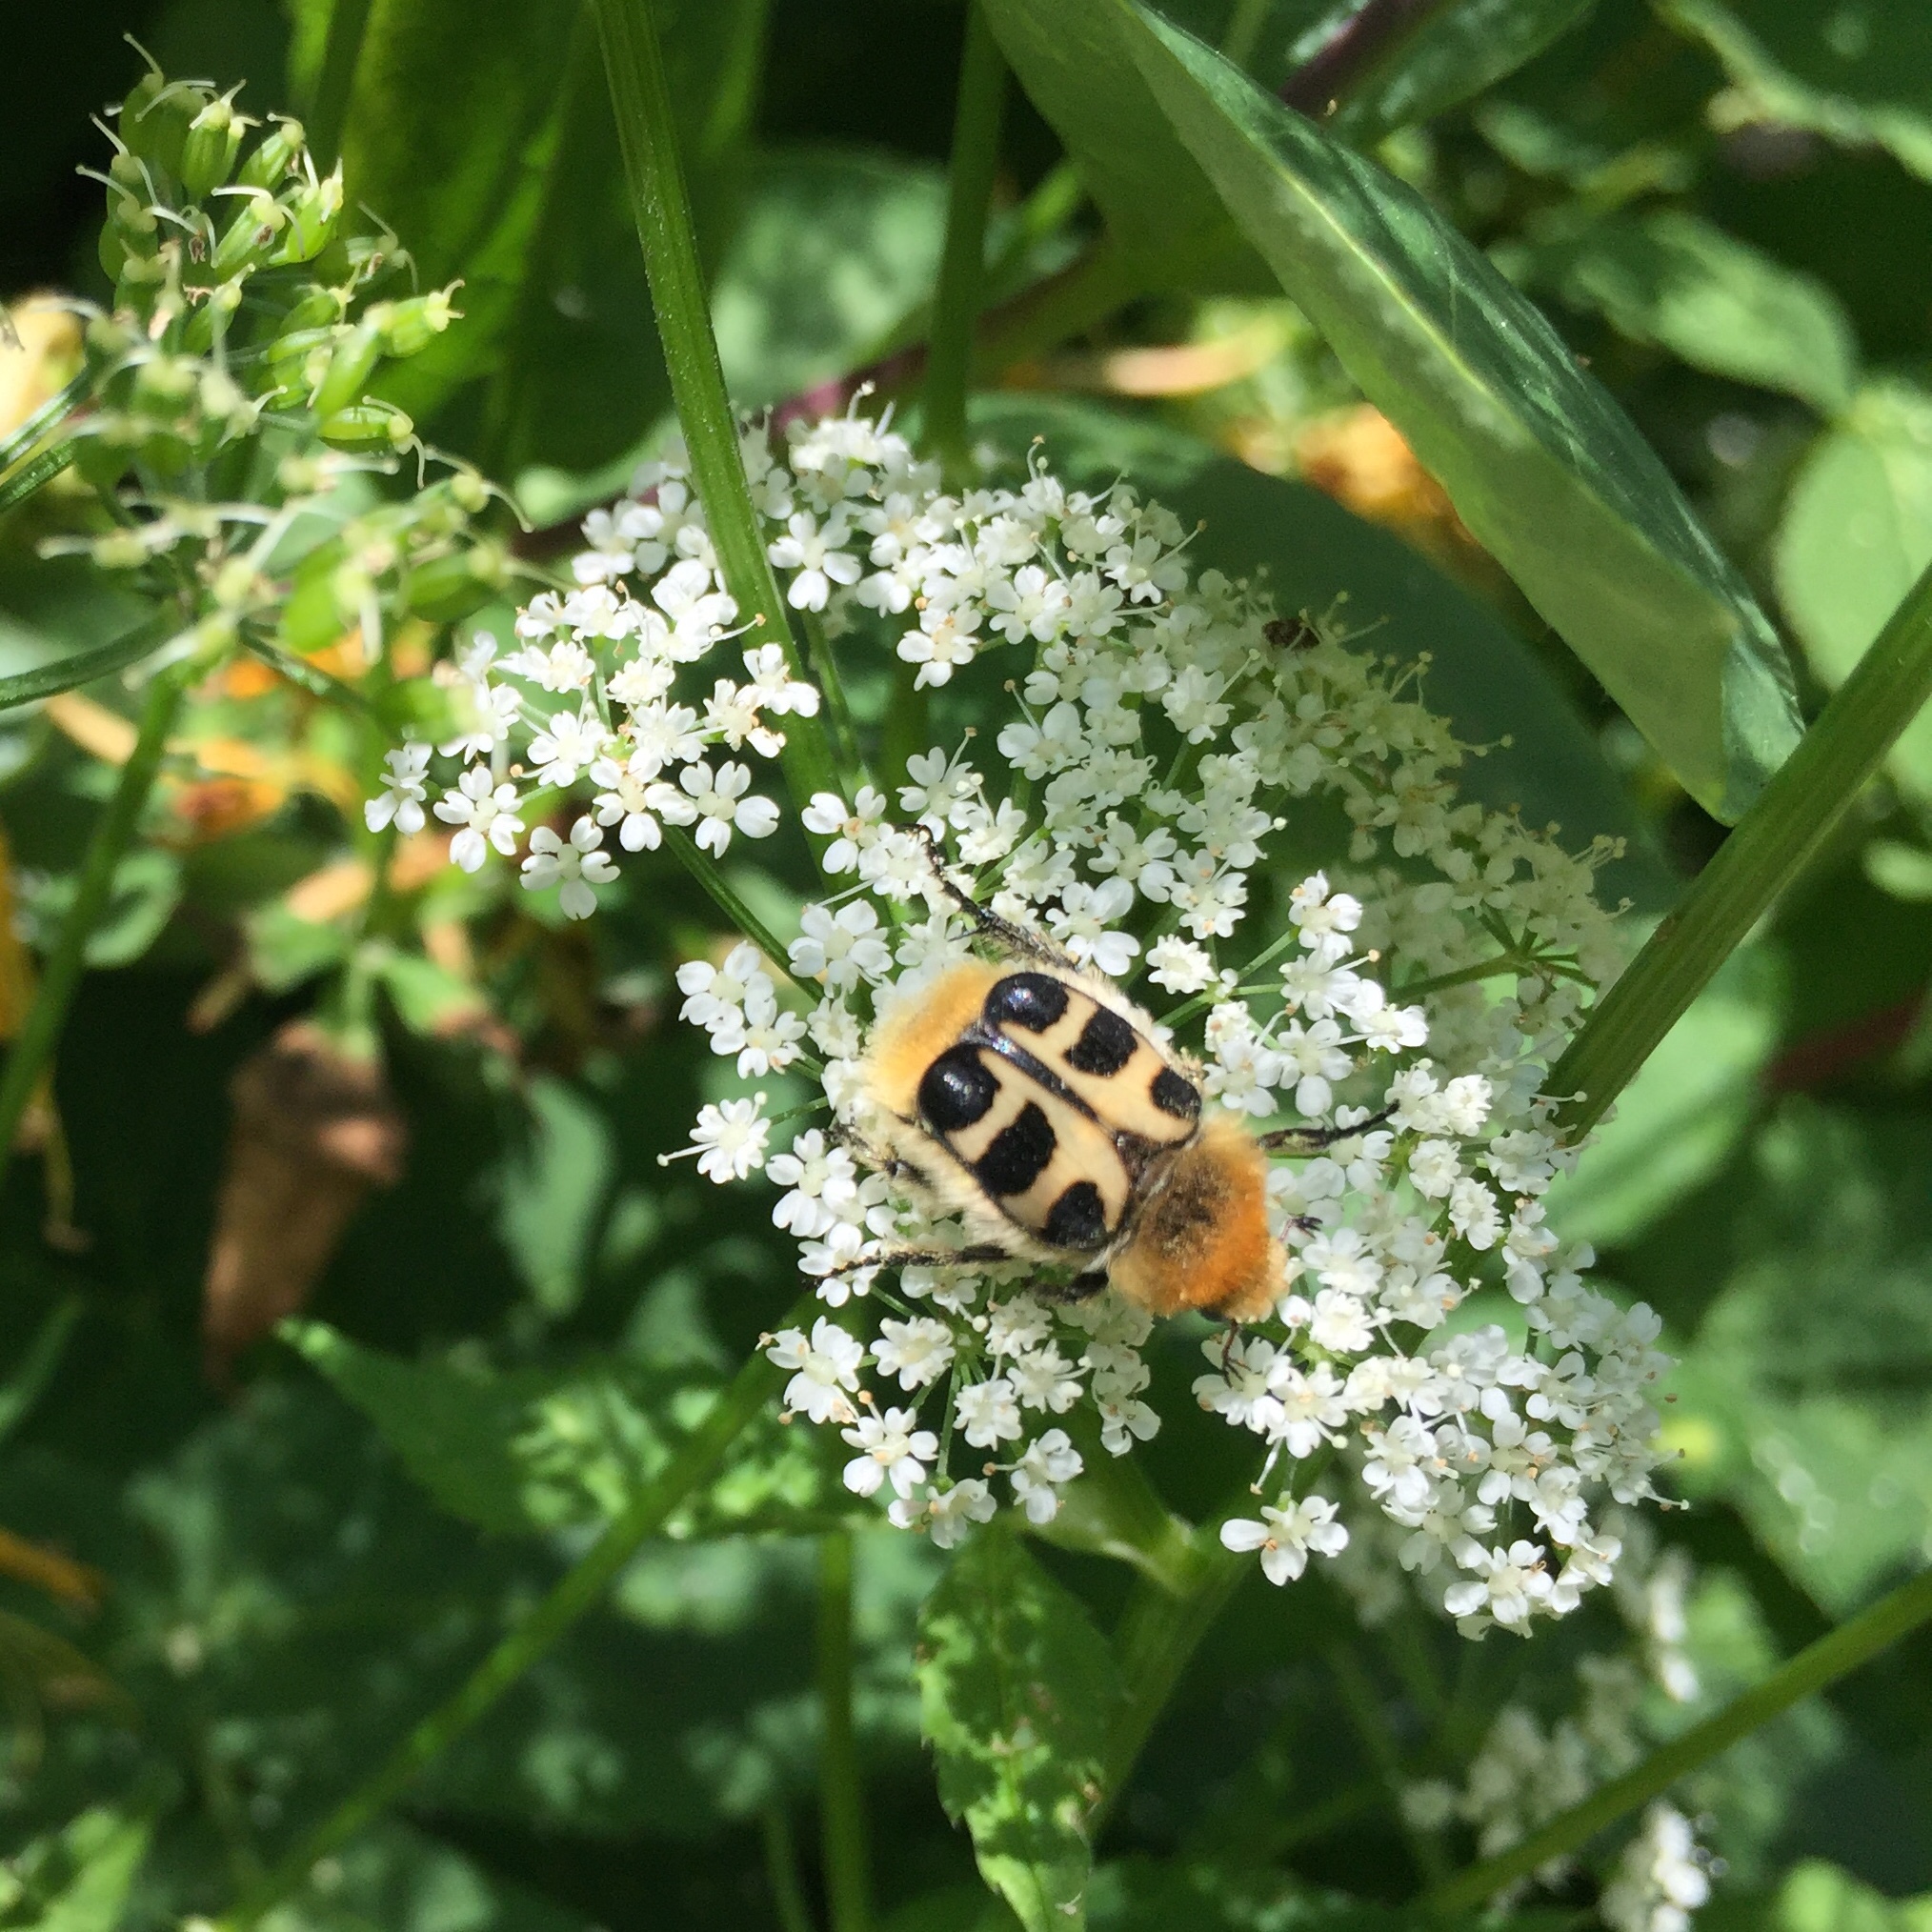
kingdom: Animalia
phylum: Arthropoda
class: Insecta
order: Coleoptera
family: Scarabaeidae
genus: Trichius
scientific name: Trichius gallicus
